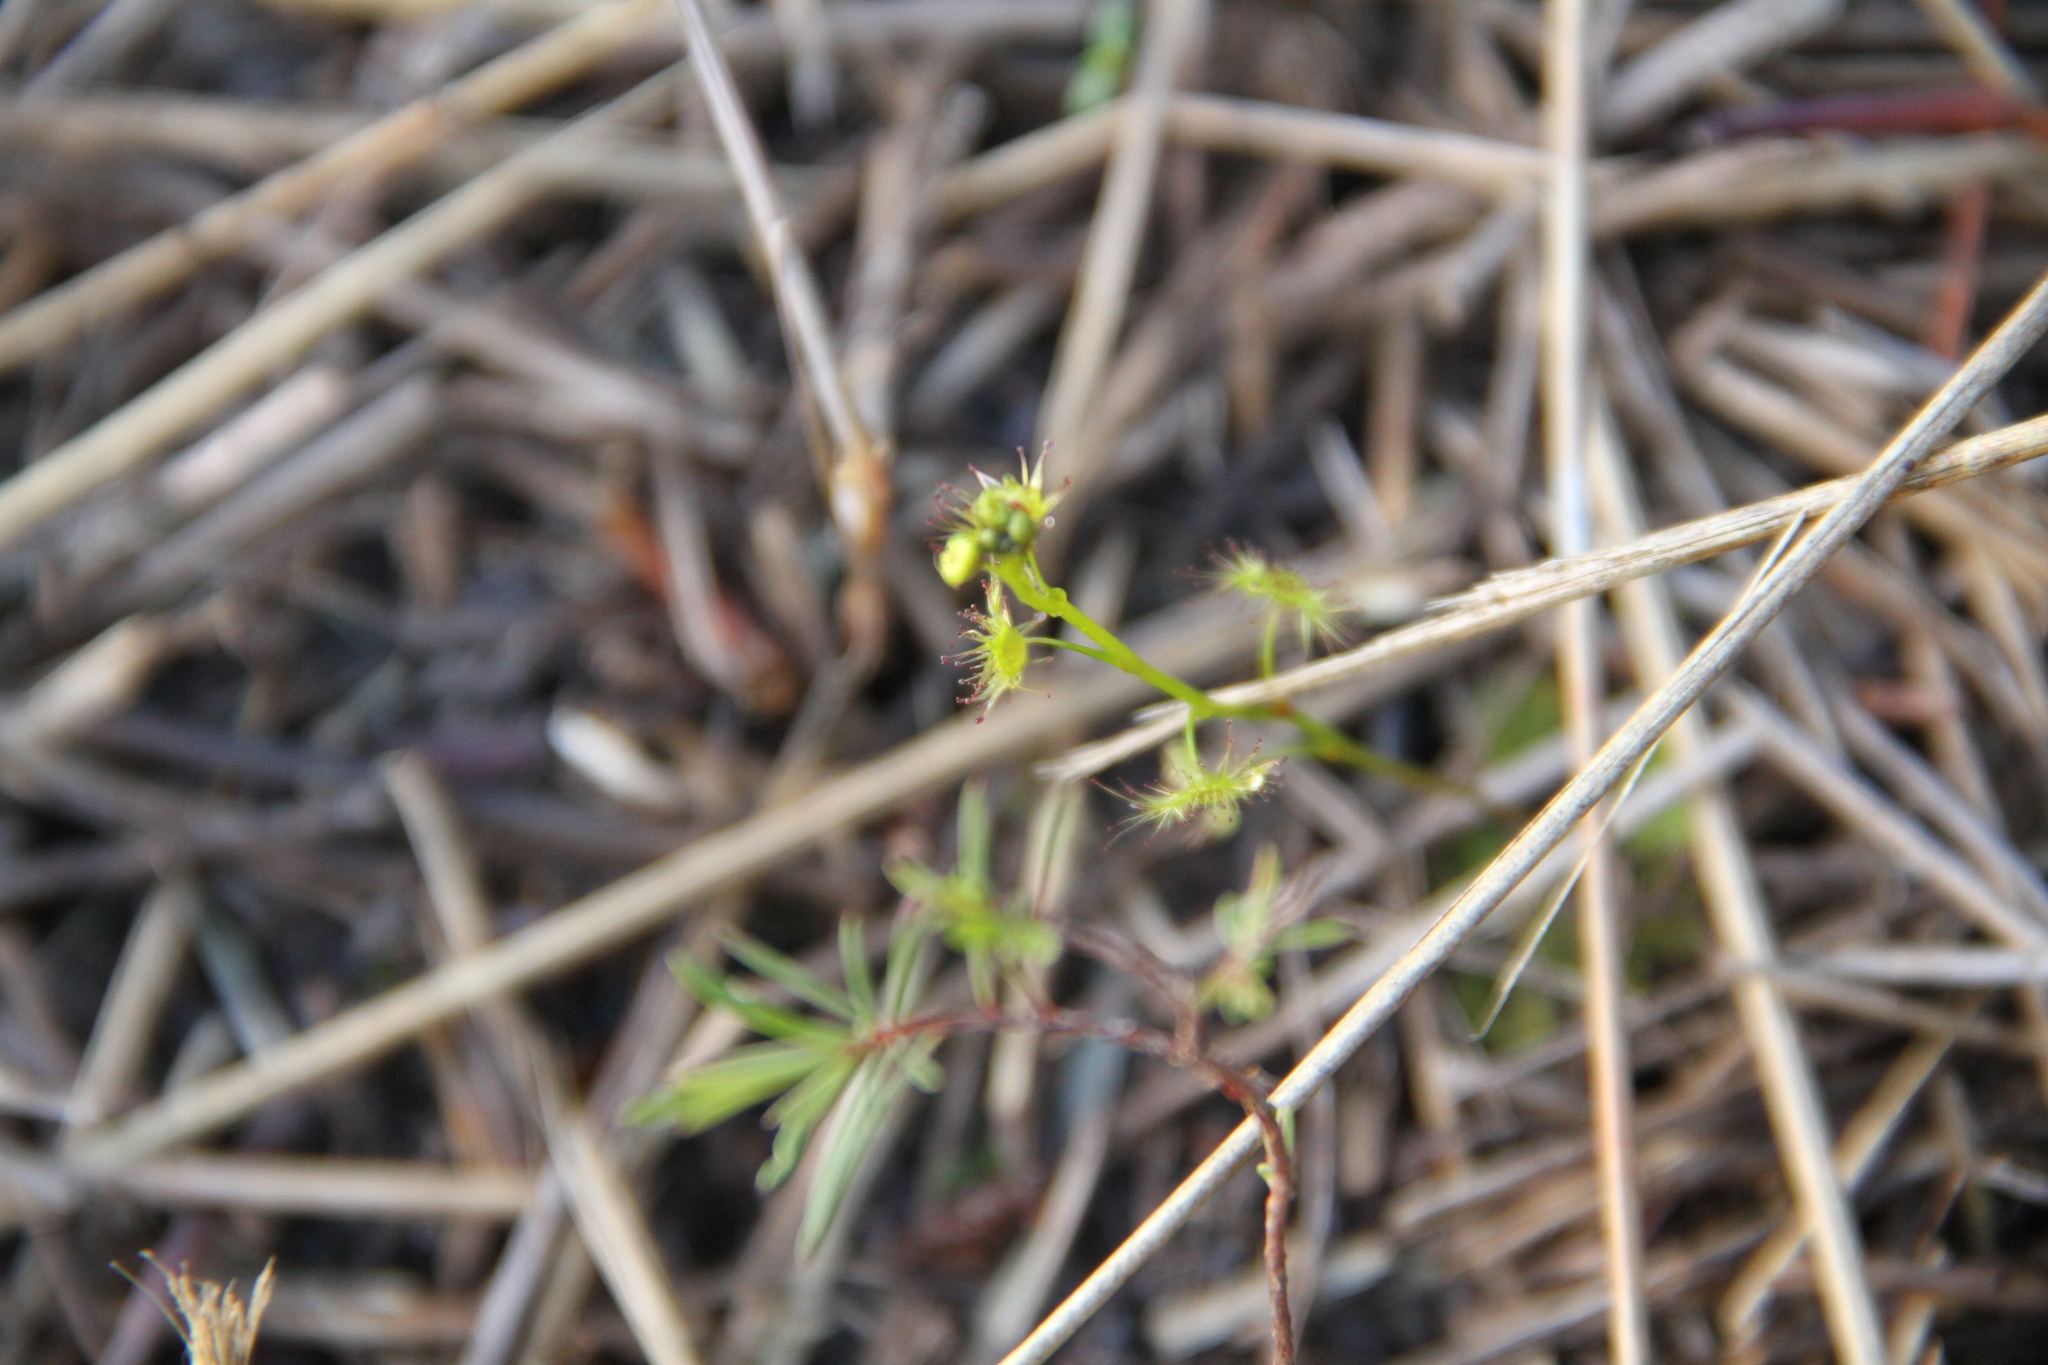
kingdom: Plantae
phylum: Tracheophyta
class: Magnoliopsida
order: Caryophyllales
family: Droseraceae
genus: Drosera
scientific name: Drosera peltata
